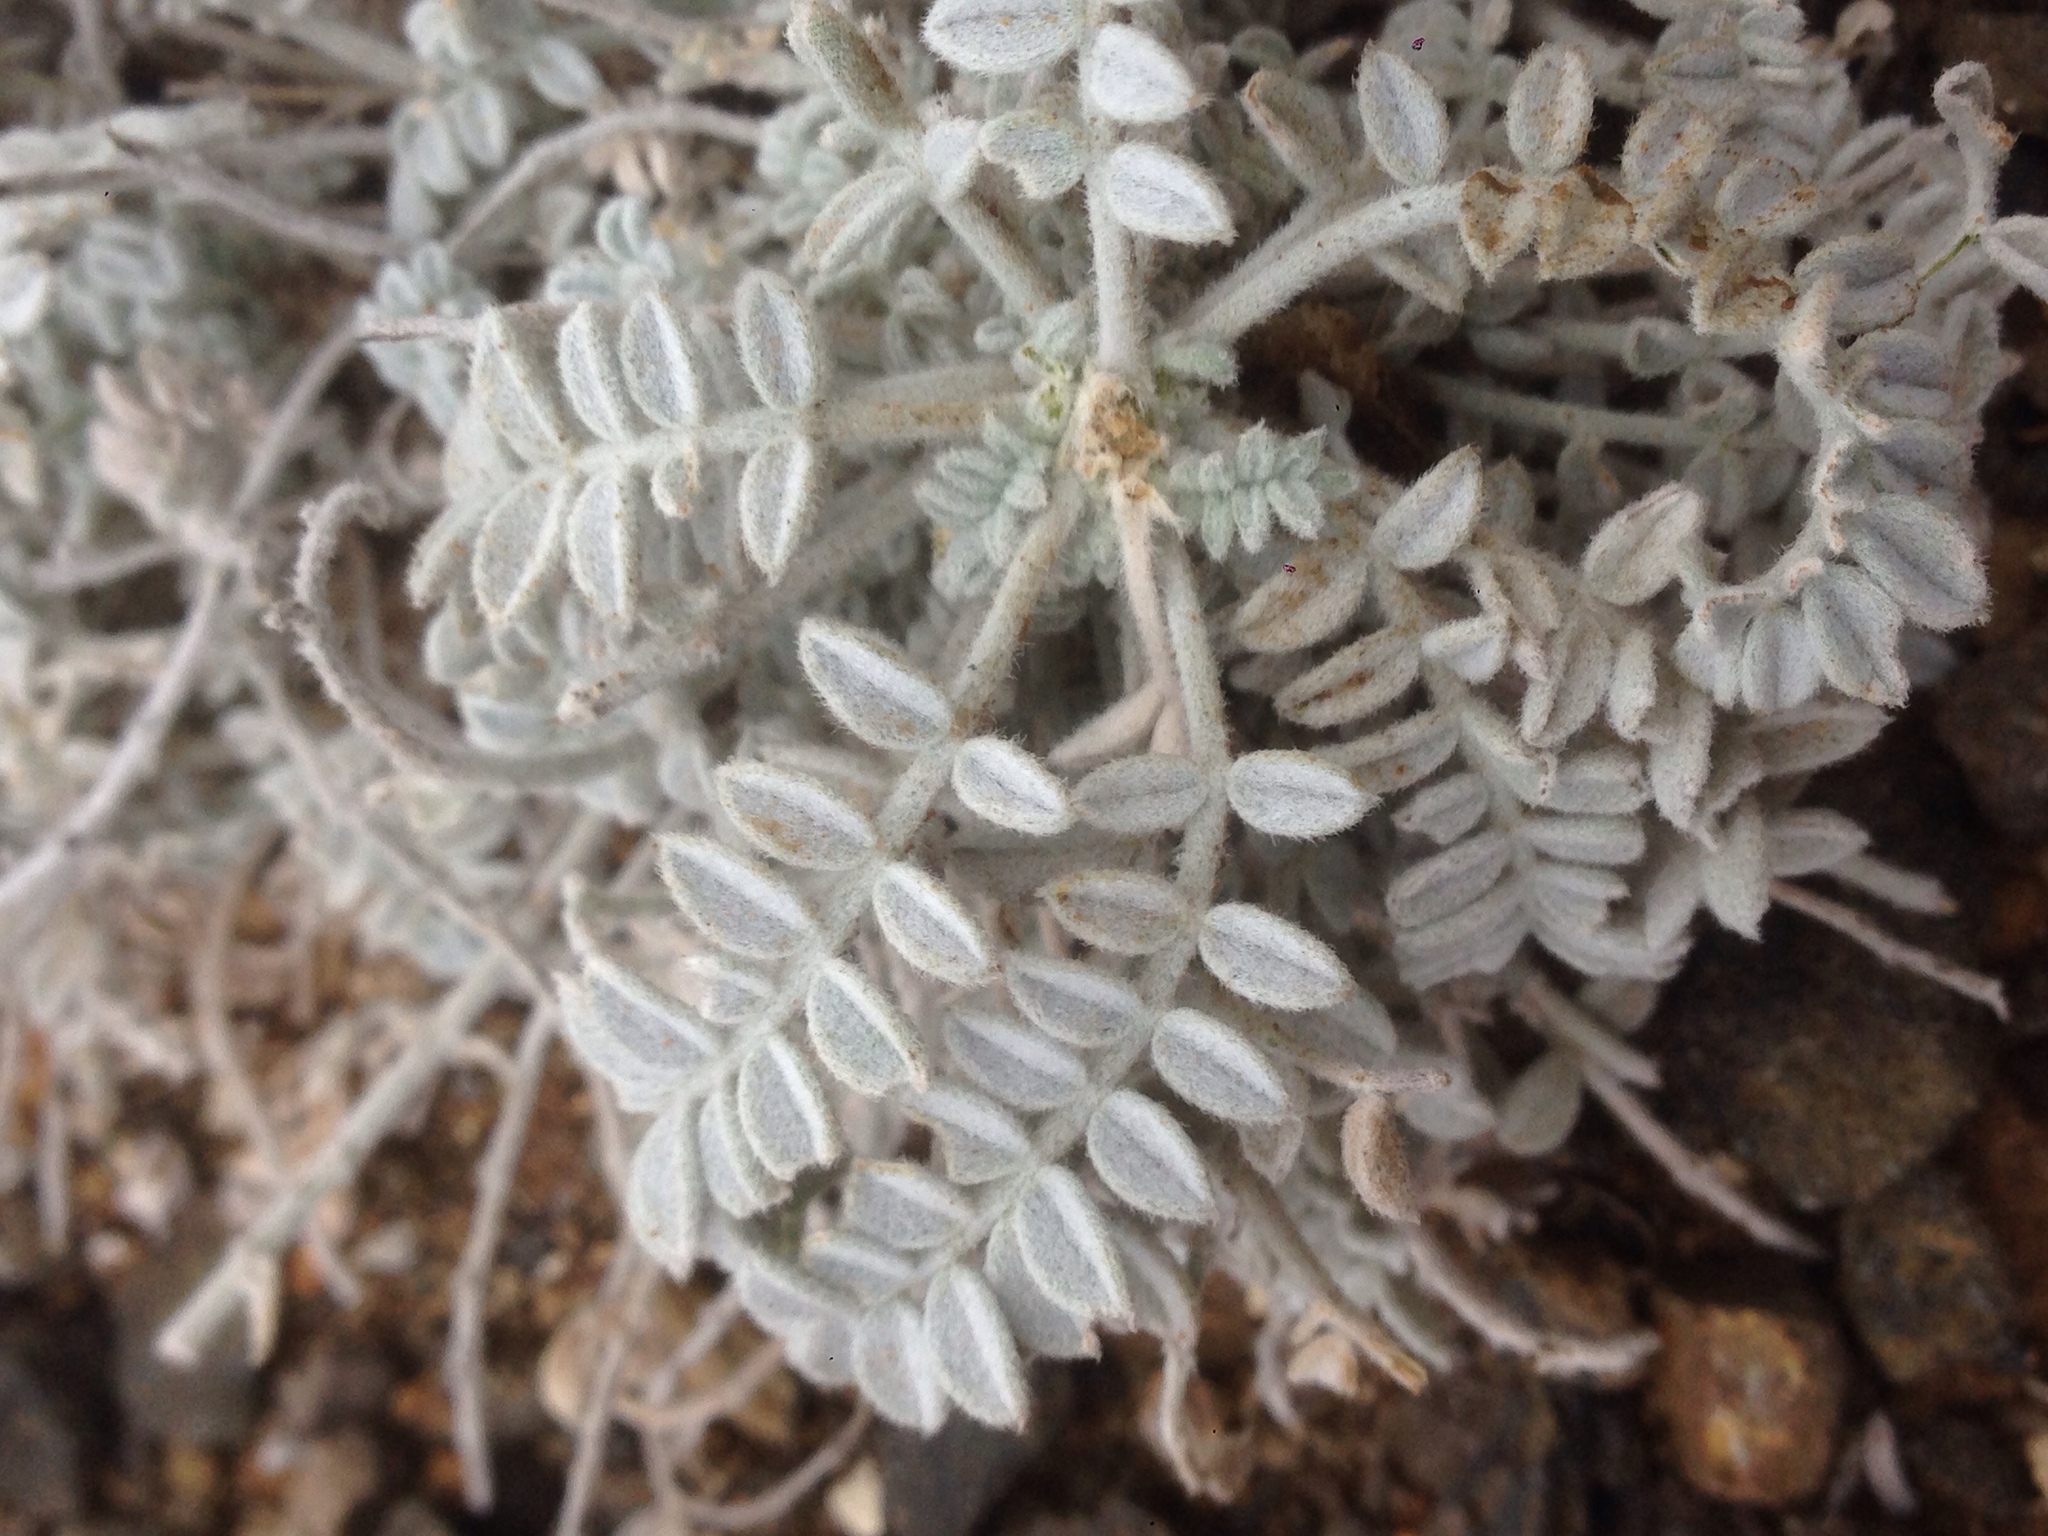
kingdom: Plantae
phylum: Tracheophyta
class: Magnoliopsida
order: Fabales
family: Fabaceae
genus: Astragalus
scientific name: Astragalus traskiae
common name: Trask's milk-vetch
